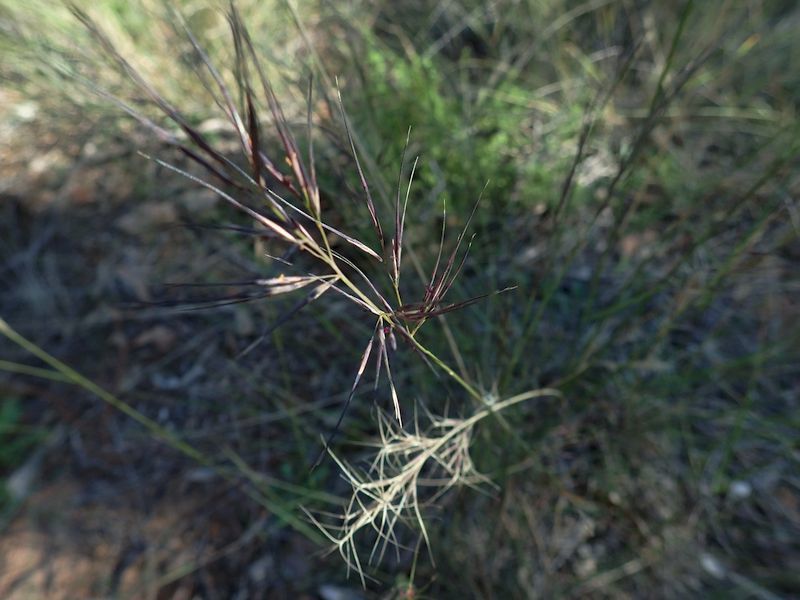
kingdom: Plantae
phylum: Tracheophyta
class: Liliopsida
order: Poales
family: Poaceae
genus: Aristida
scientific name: Aristida warburgii
